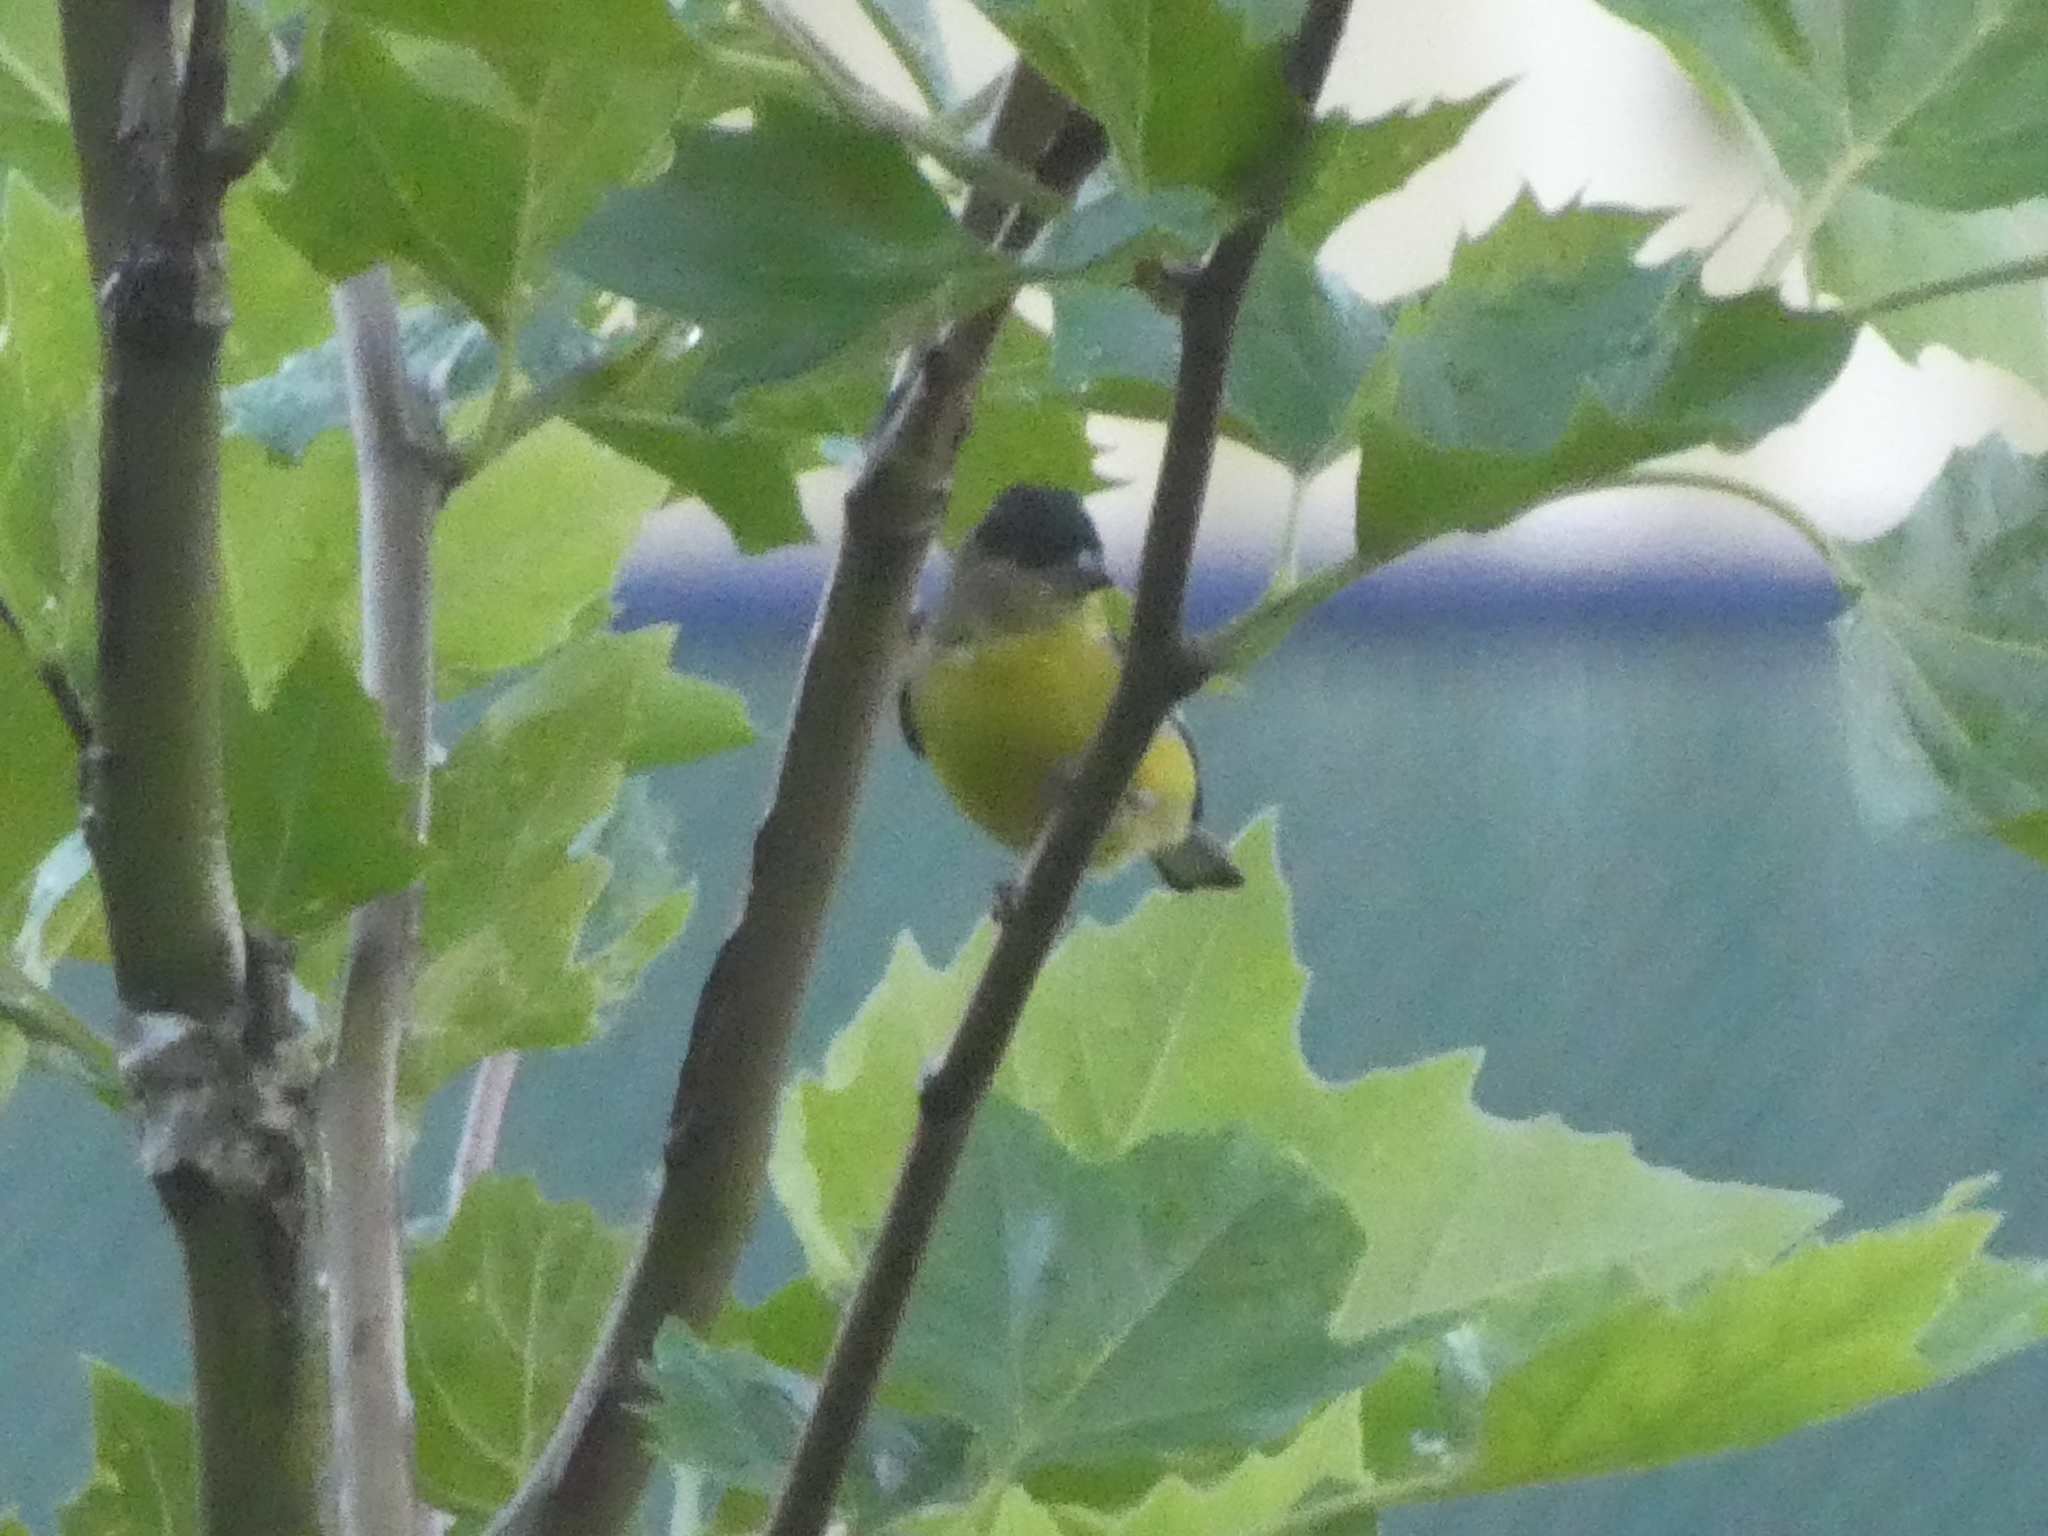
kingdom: Animalia
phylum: Chordata
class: Aves
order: Passeriformes
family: Fringillidae
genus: Spinus
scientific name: Spinus psaltria
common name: Lesser goldfinch
